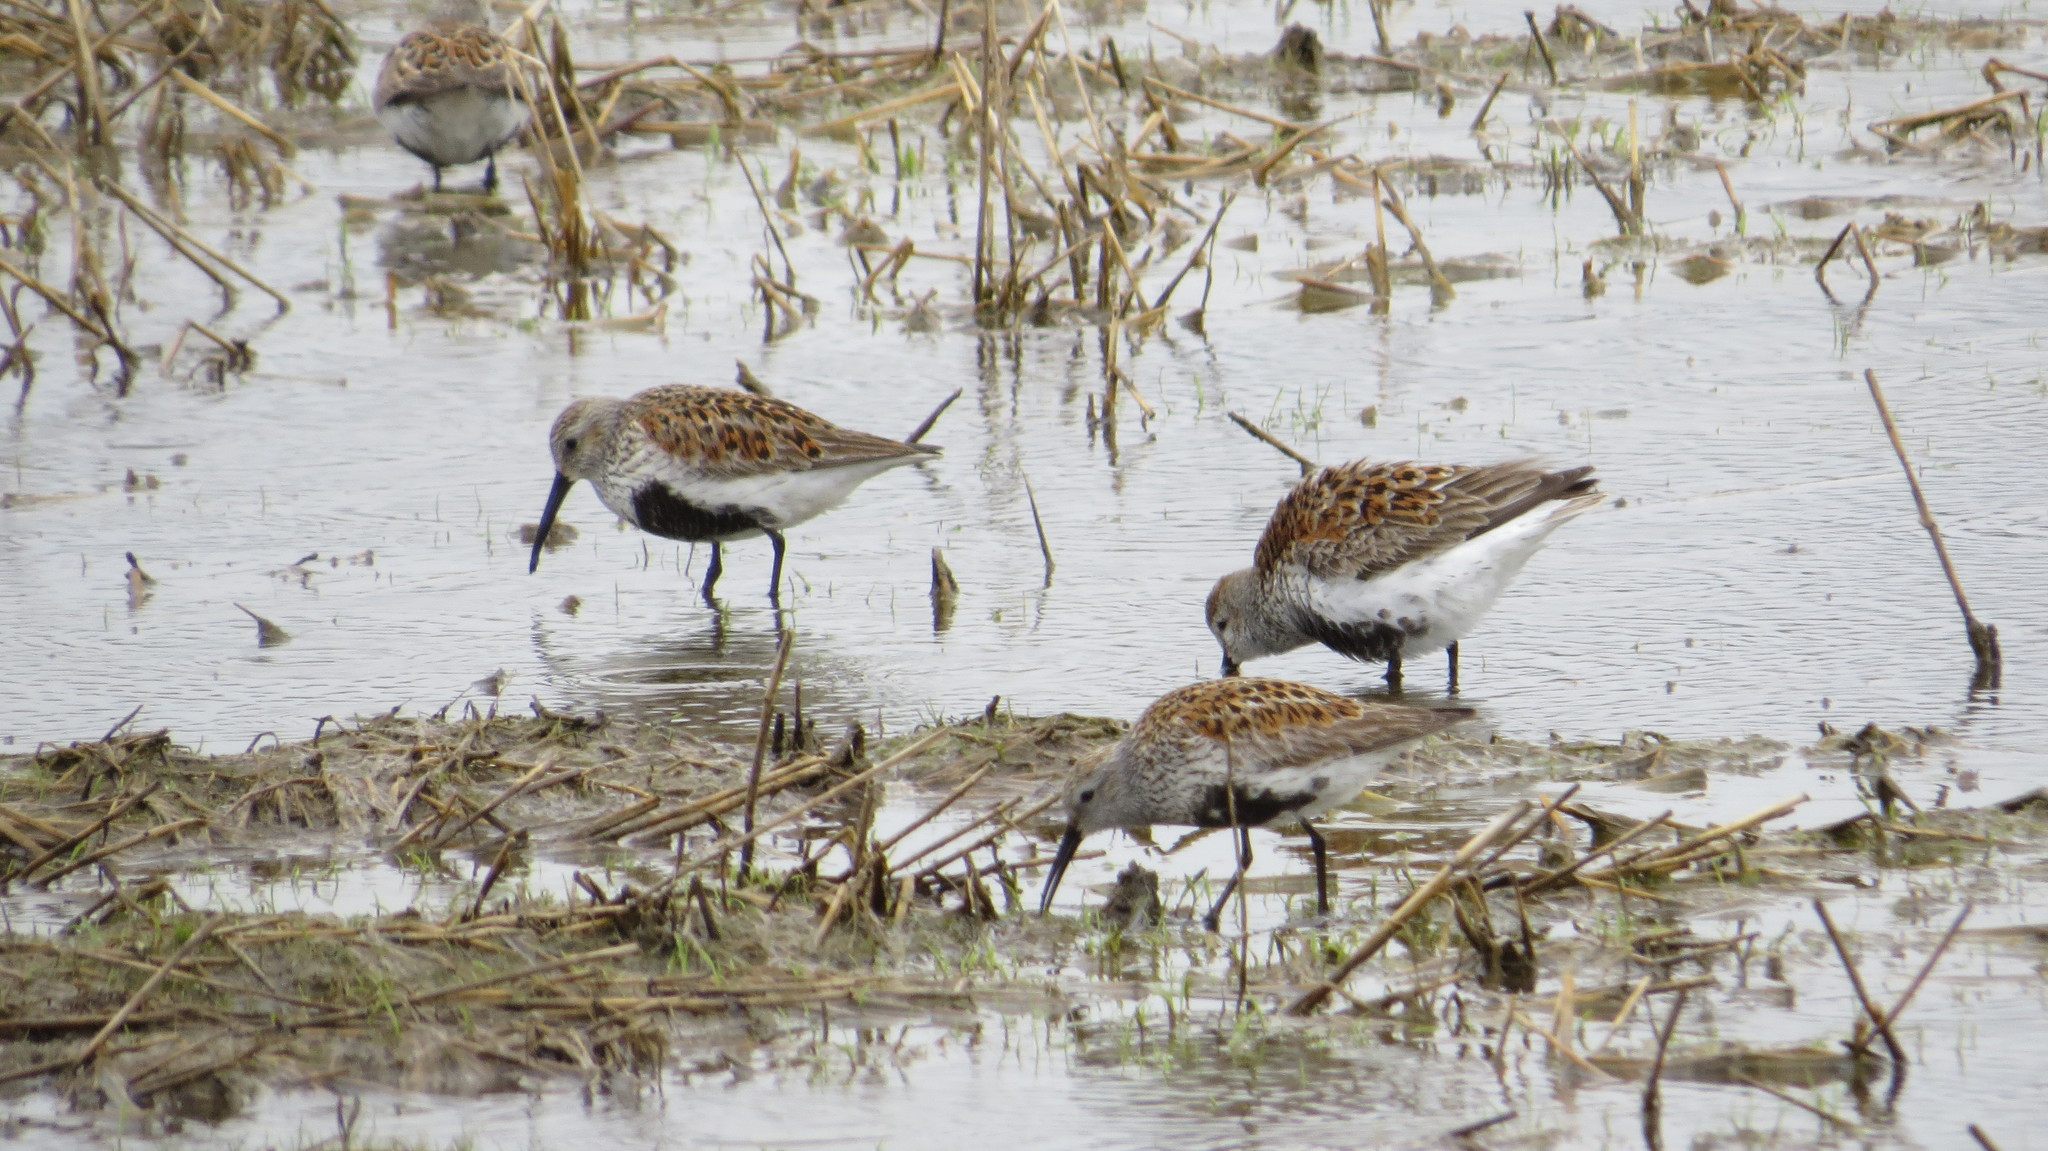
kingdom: Animalia
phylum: Chordata
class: Aves
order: Charadriiformes
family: Scolopacidae
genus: Calidris
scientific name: Calidris alpina
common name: Dunlin
